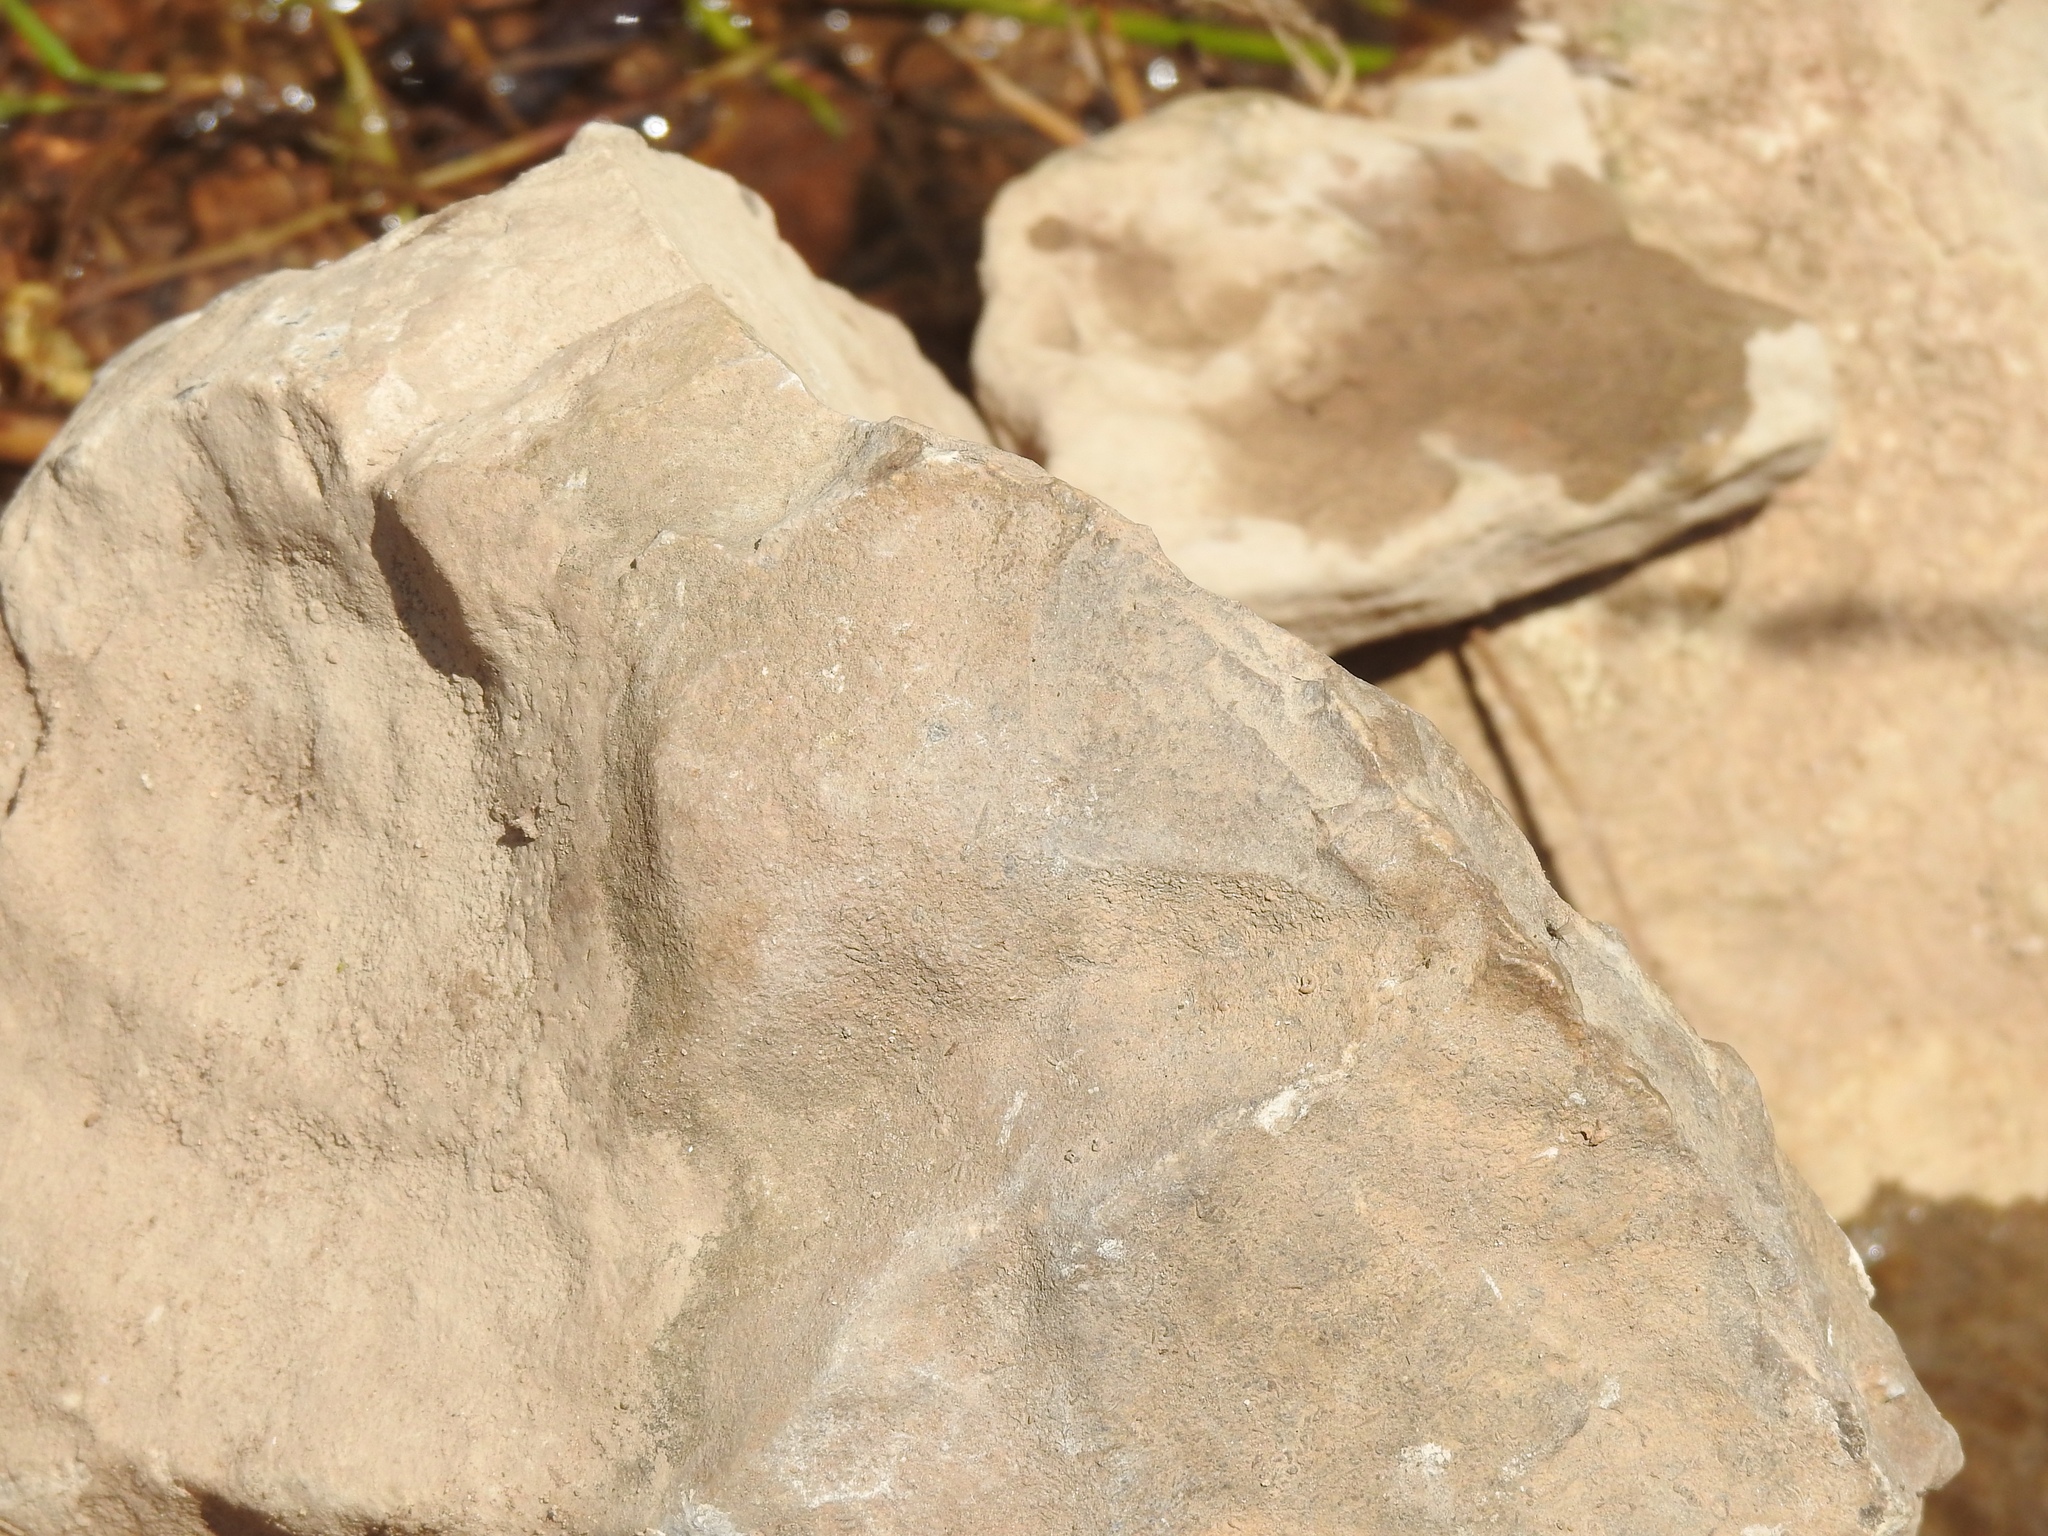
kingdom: Animalia
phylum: Arthropoda
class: Insecta
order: Odonata
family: Coenagrionidae
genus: Argia
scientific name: Argia vivida
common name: Vivid dancer
